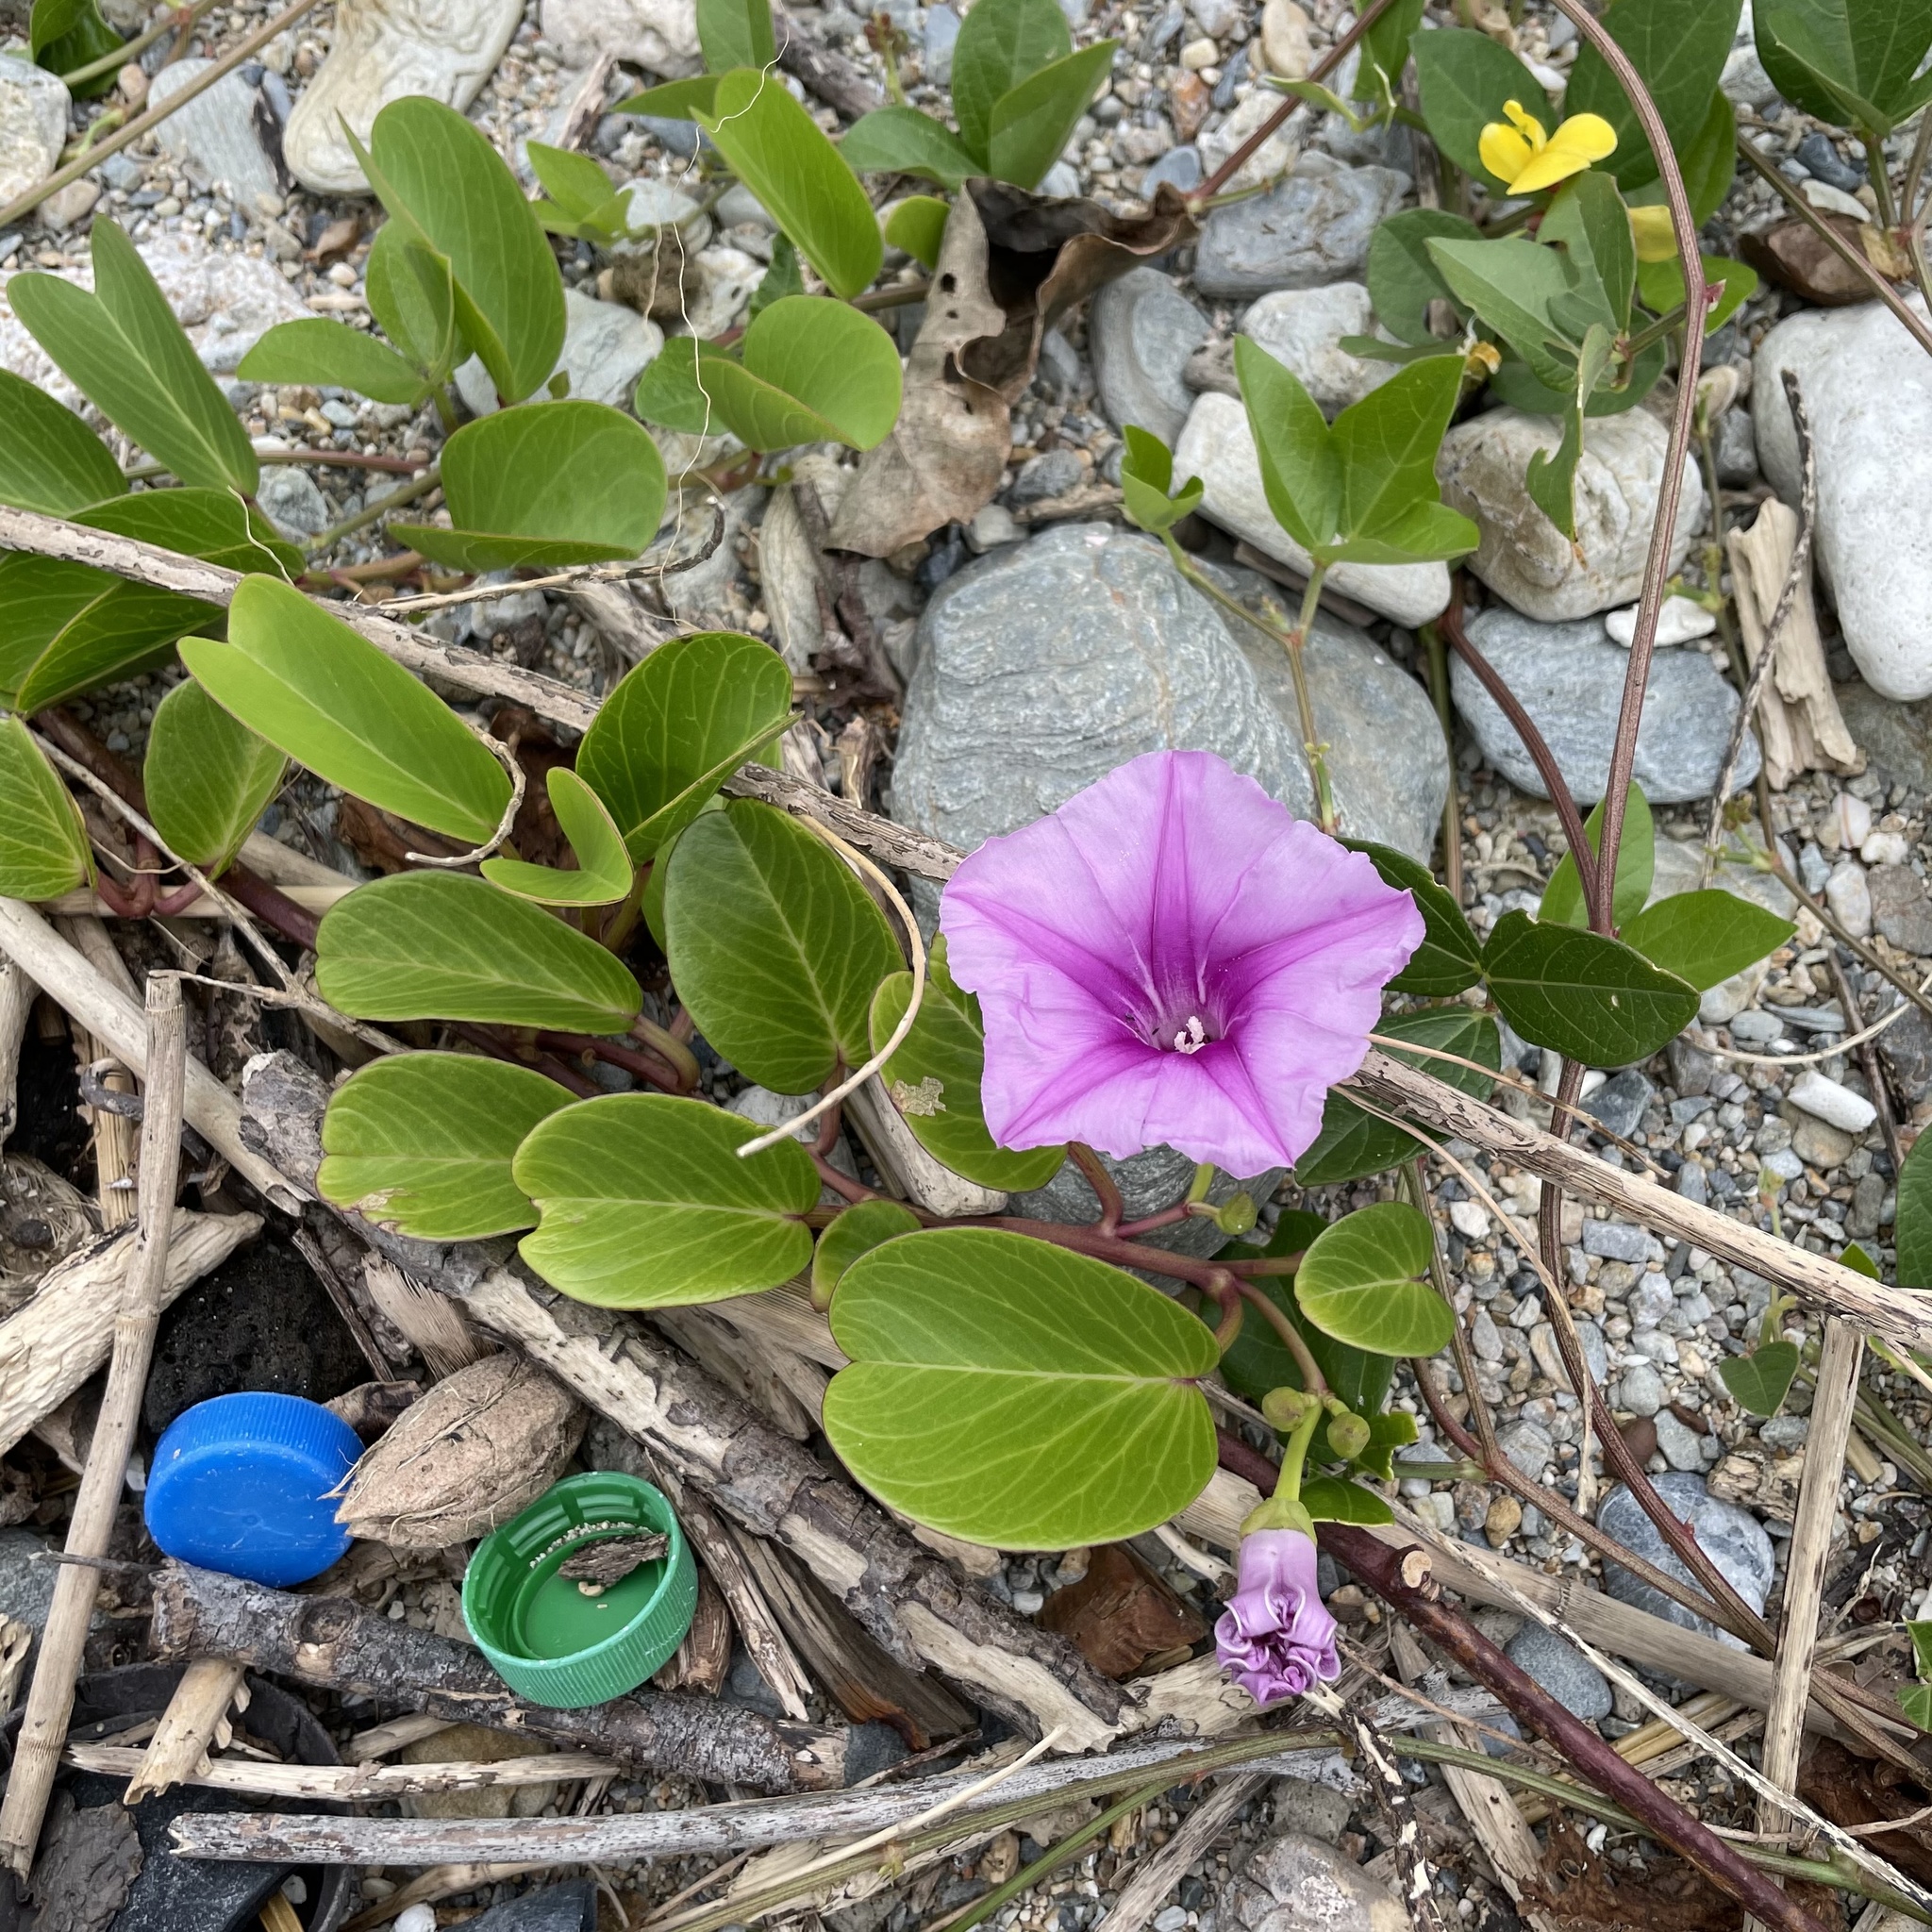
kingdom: Plantae
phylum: Tracheophyta
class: Magnoliopsida
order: Solanales
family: Convolvulaceae
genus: Ipomoea
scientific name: Ipomoea pes-caprae
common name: Beach morning glory
